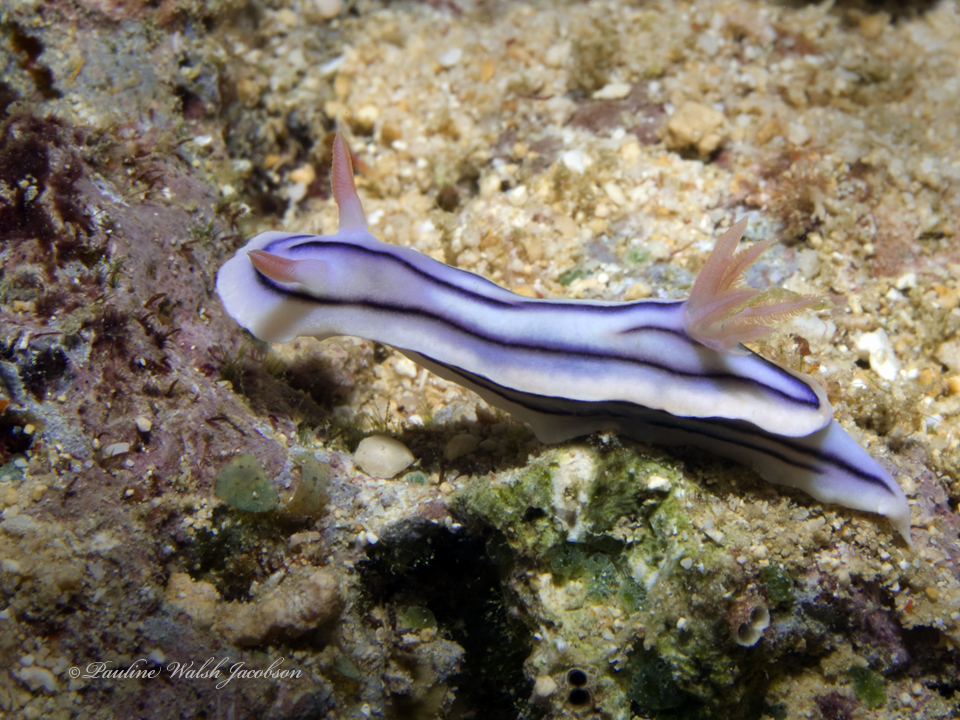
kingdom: Animalia
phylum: Mollusca
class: Gastropoda
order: Nudibranchia
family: Chromodorididae
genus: Chromodoris
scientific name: Chromodoris lochi
